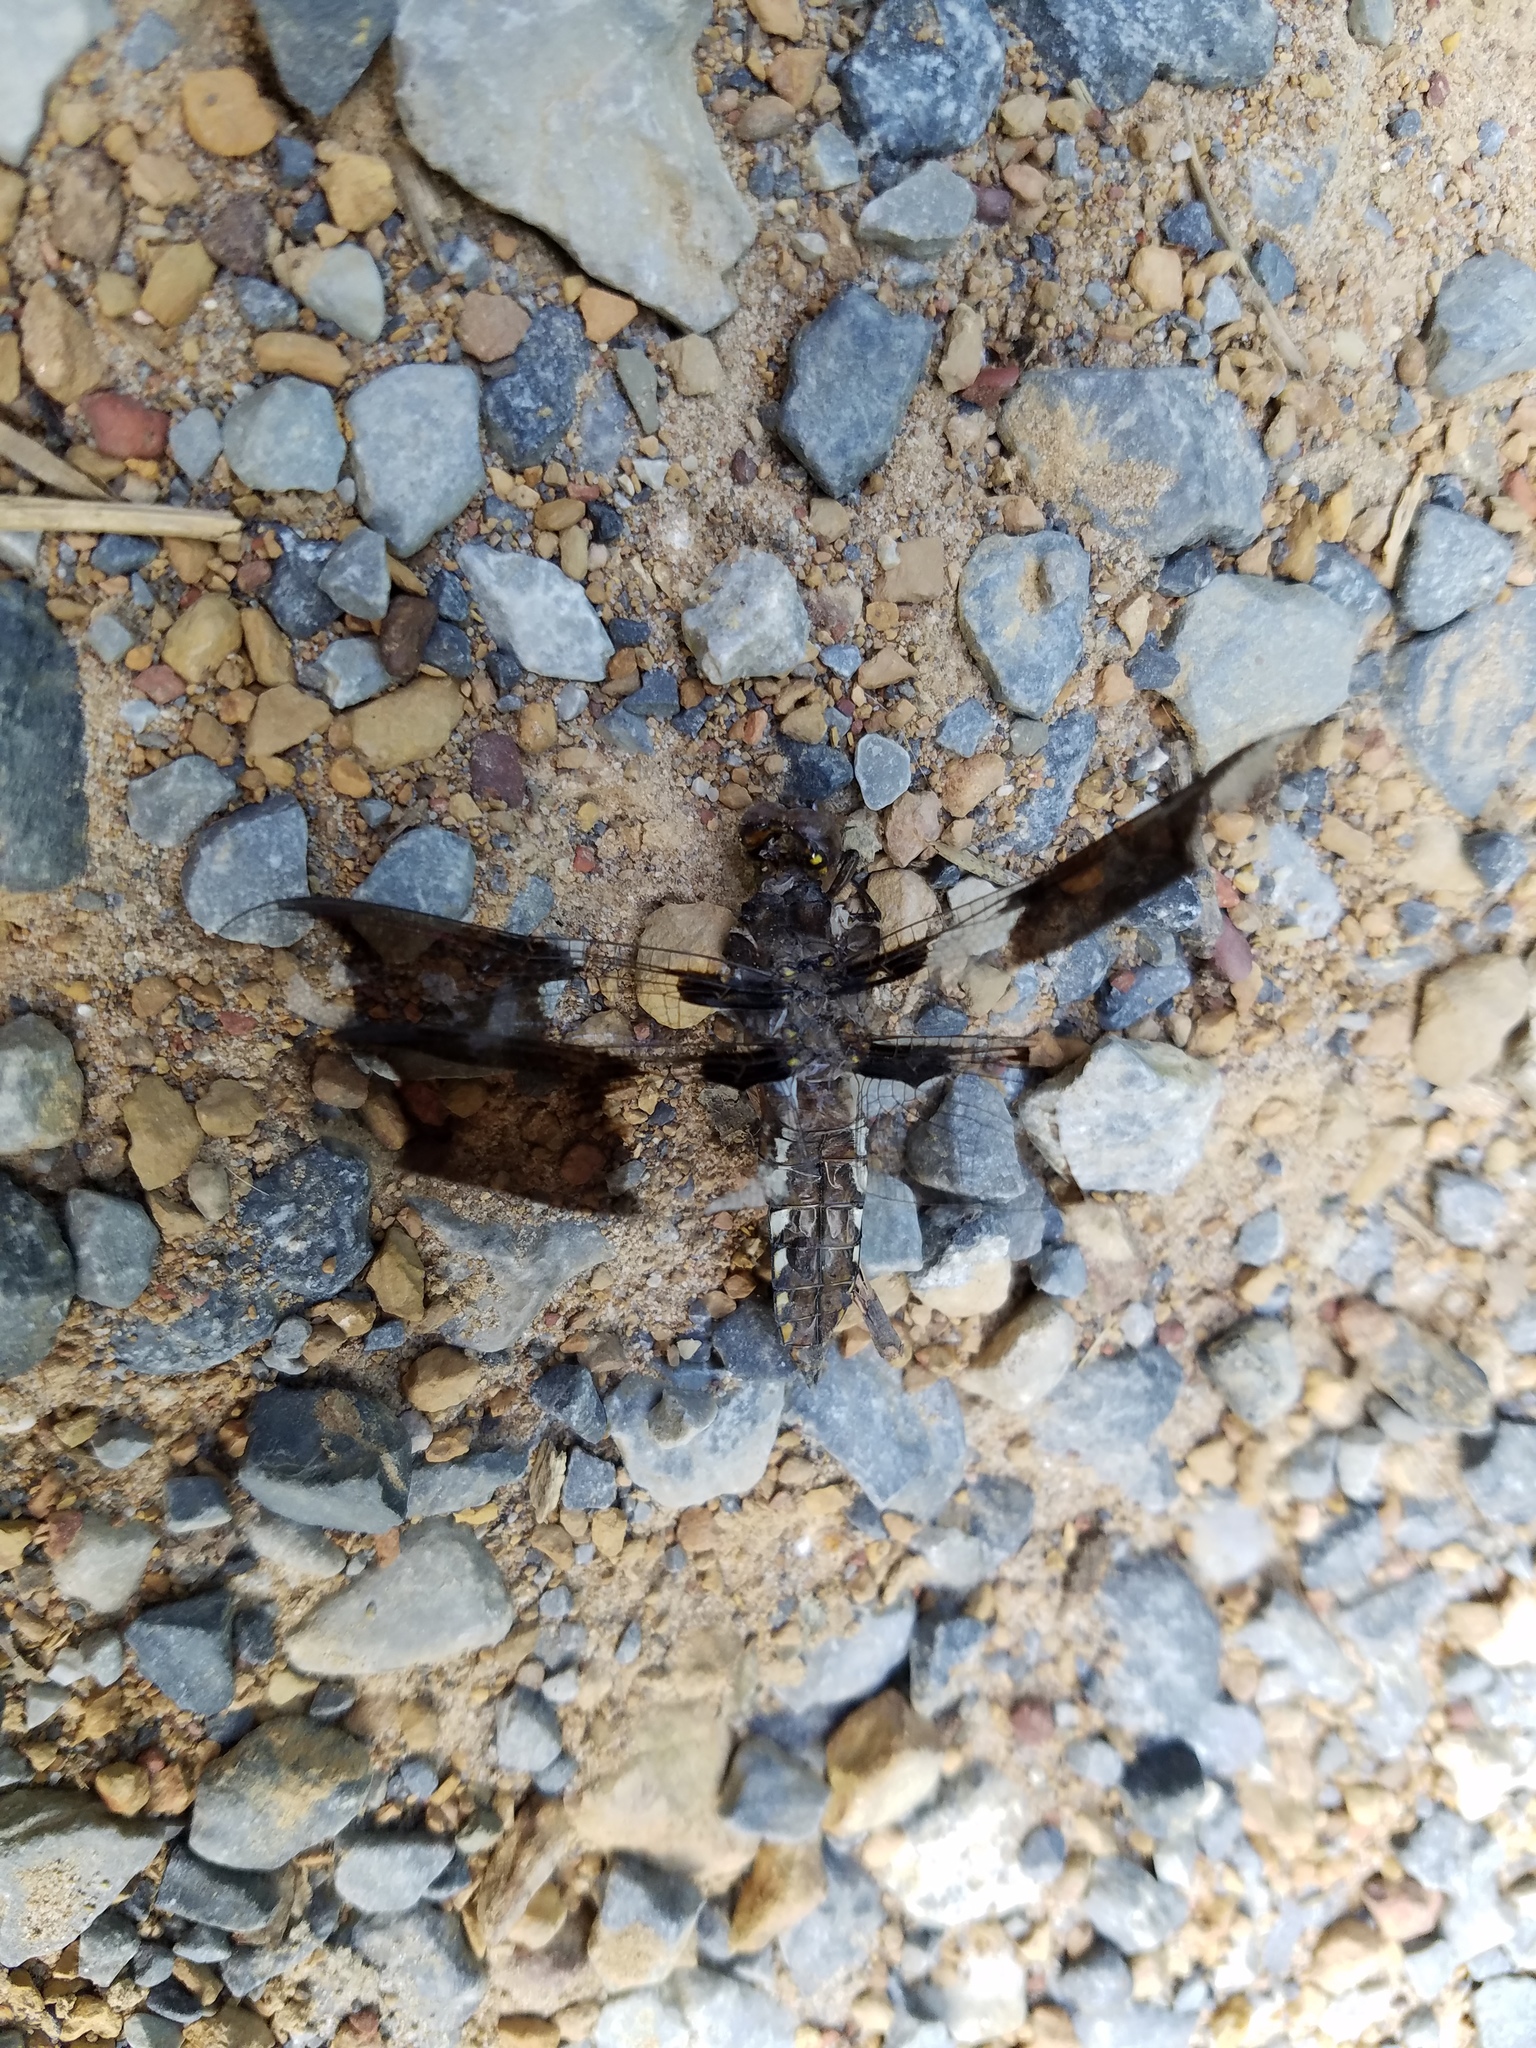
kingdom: Animalia
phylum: Arthropoda
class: Insecta
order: Odonata
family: Libellulidae
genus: Plathemis
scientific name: Plathemis lydia
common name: Common whitetail
